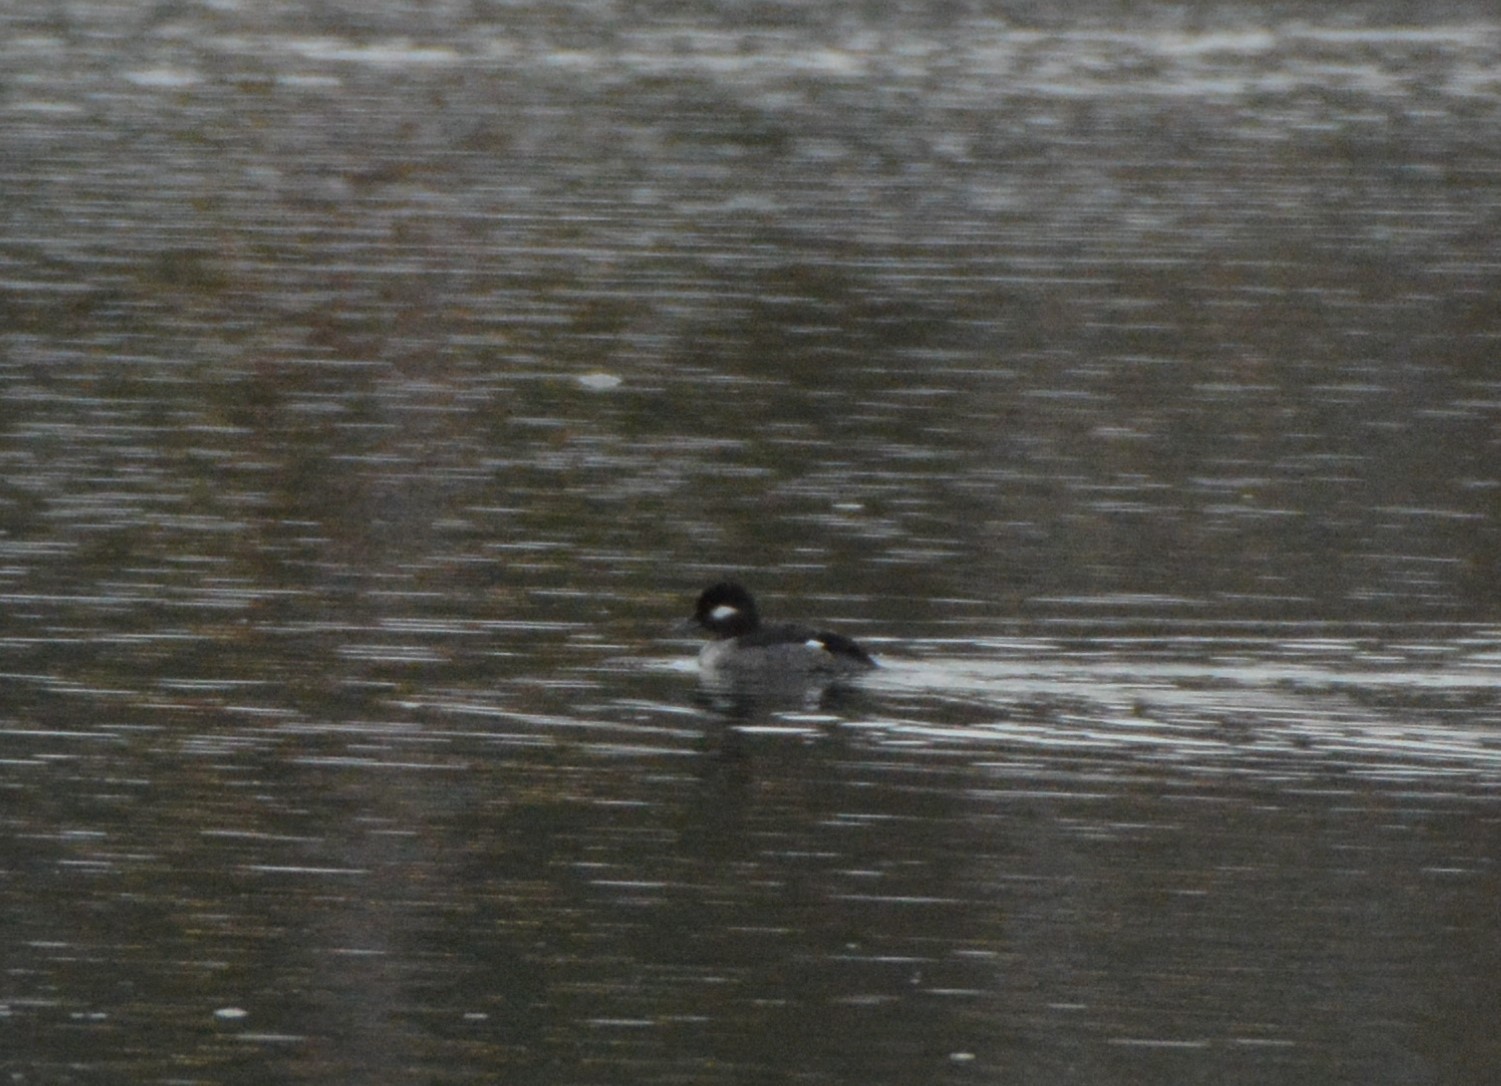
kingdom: Animalia
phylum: Chordata
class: Aves
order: Anseriformes
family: Anatidae
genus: Bucephala
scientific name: Bucephala albeola
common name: Bufflehead
